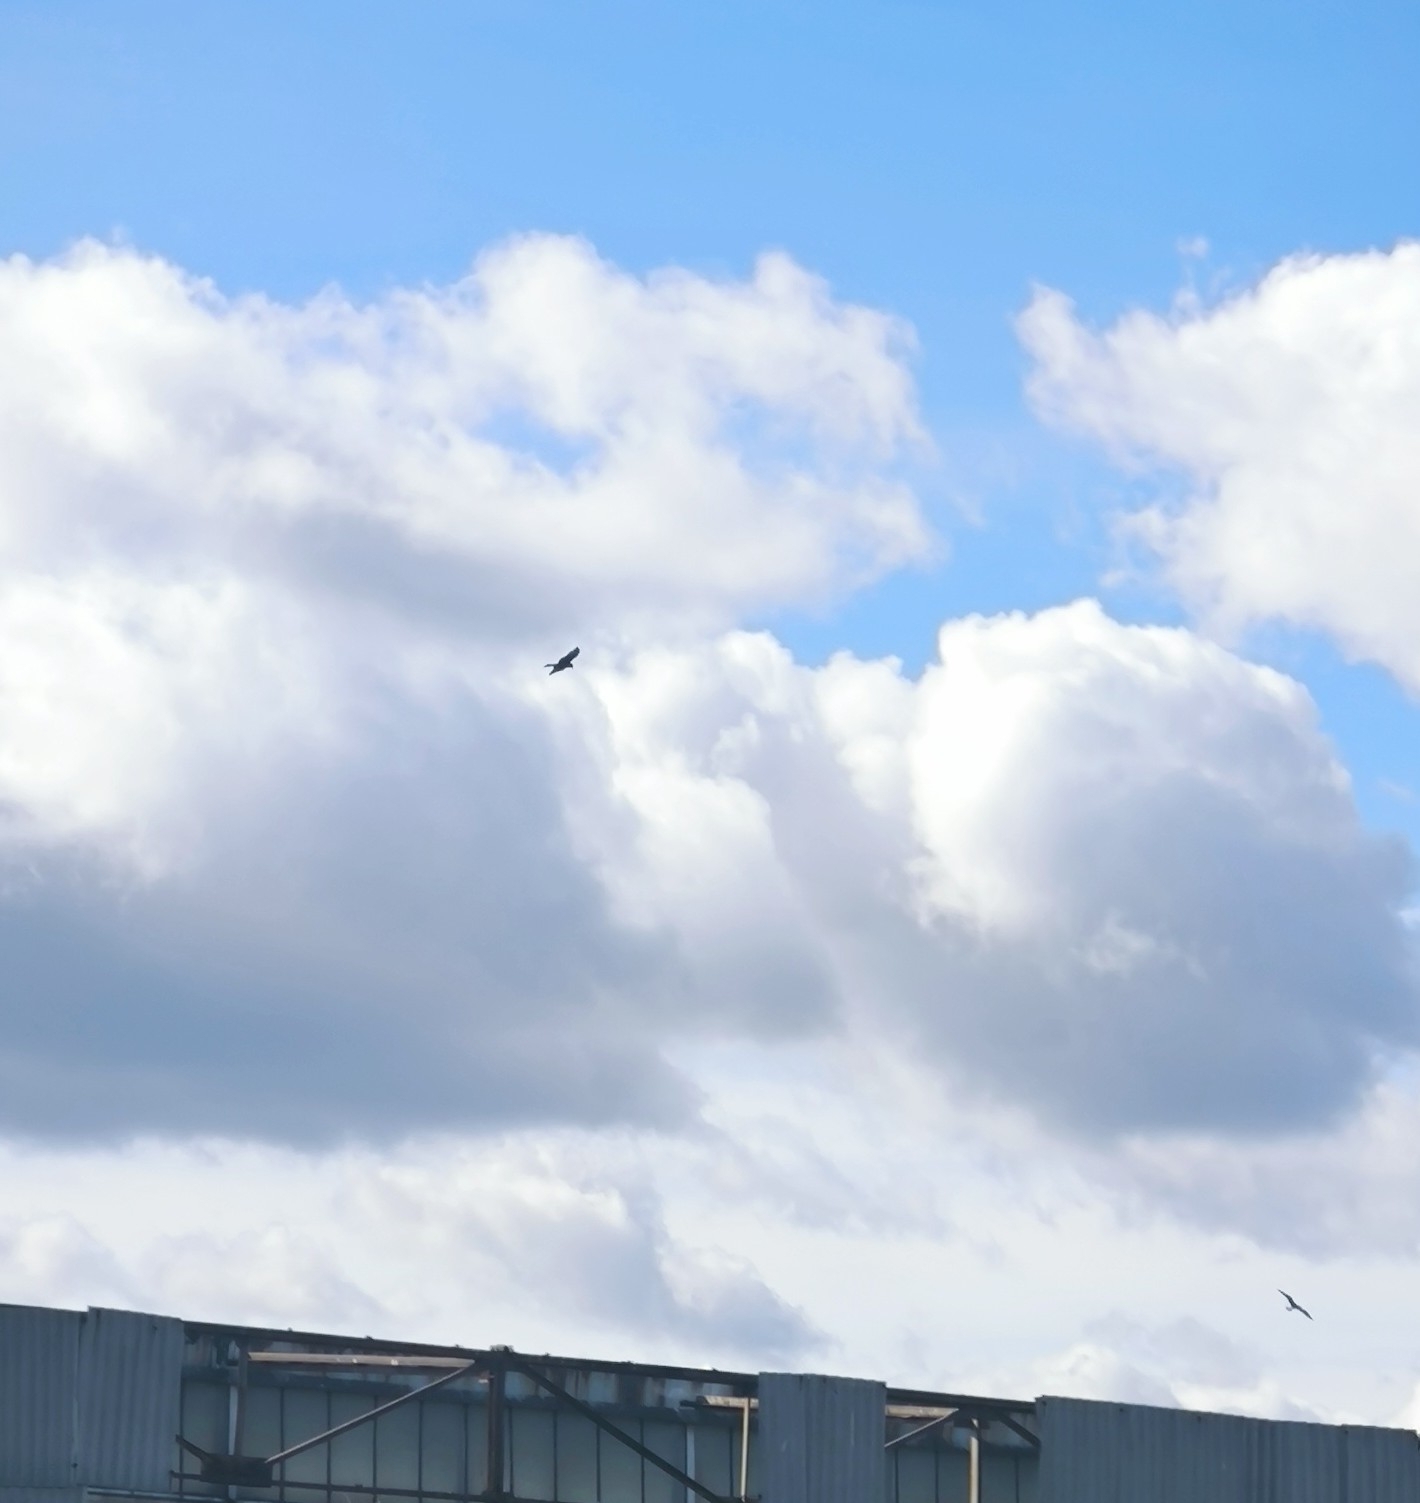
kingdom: Animalia
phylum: Chordata
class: Aves
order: Accipitriformes
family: Accipitridae
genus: Milvus
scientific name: Milvus migrans
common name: Black kite
